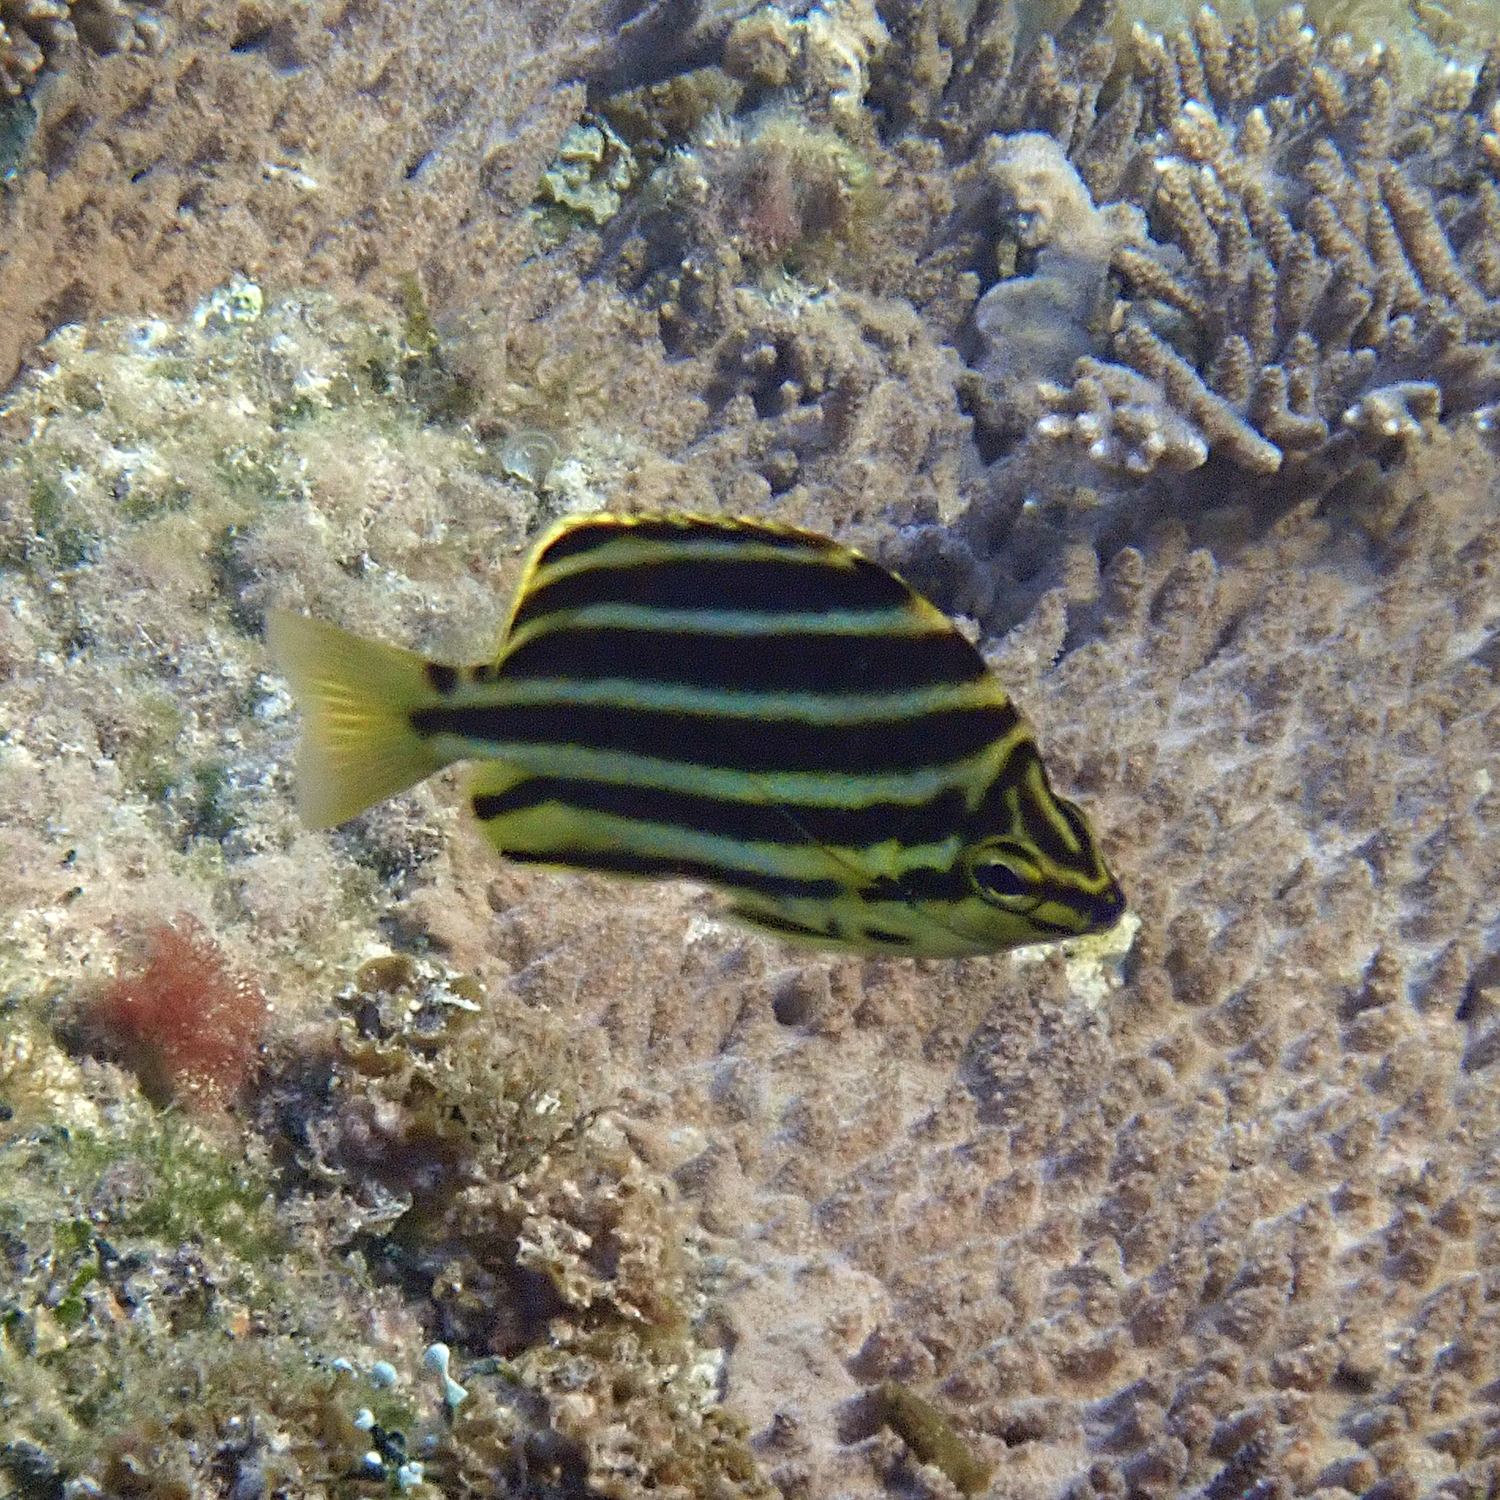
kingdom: Animalia
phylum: Chordata
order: Perciformes
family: Kyphosidae
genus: Microcanthus
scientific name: Microcanthus joyceae
